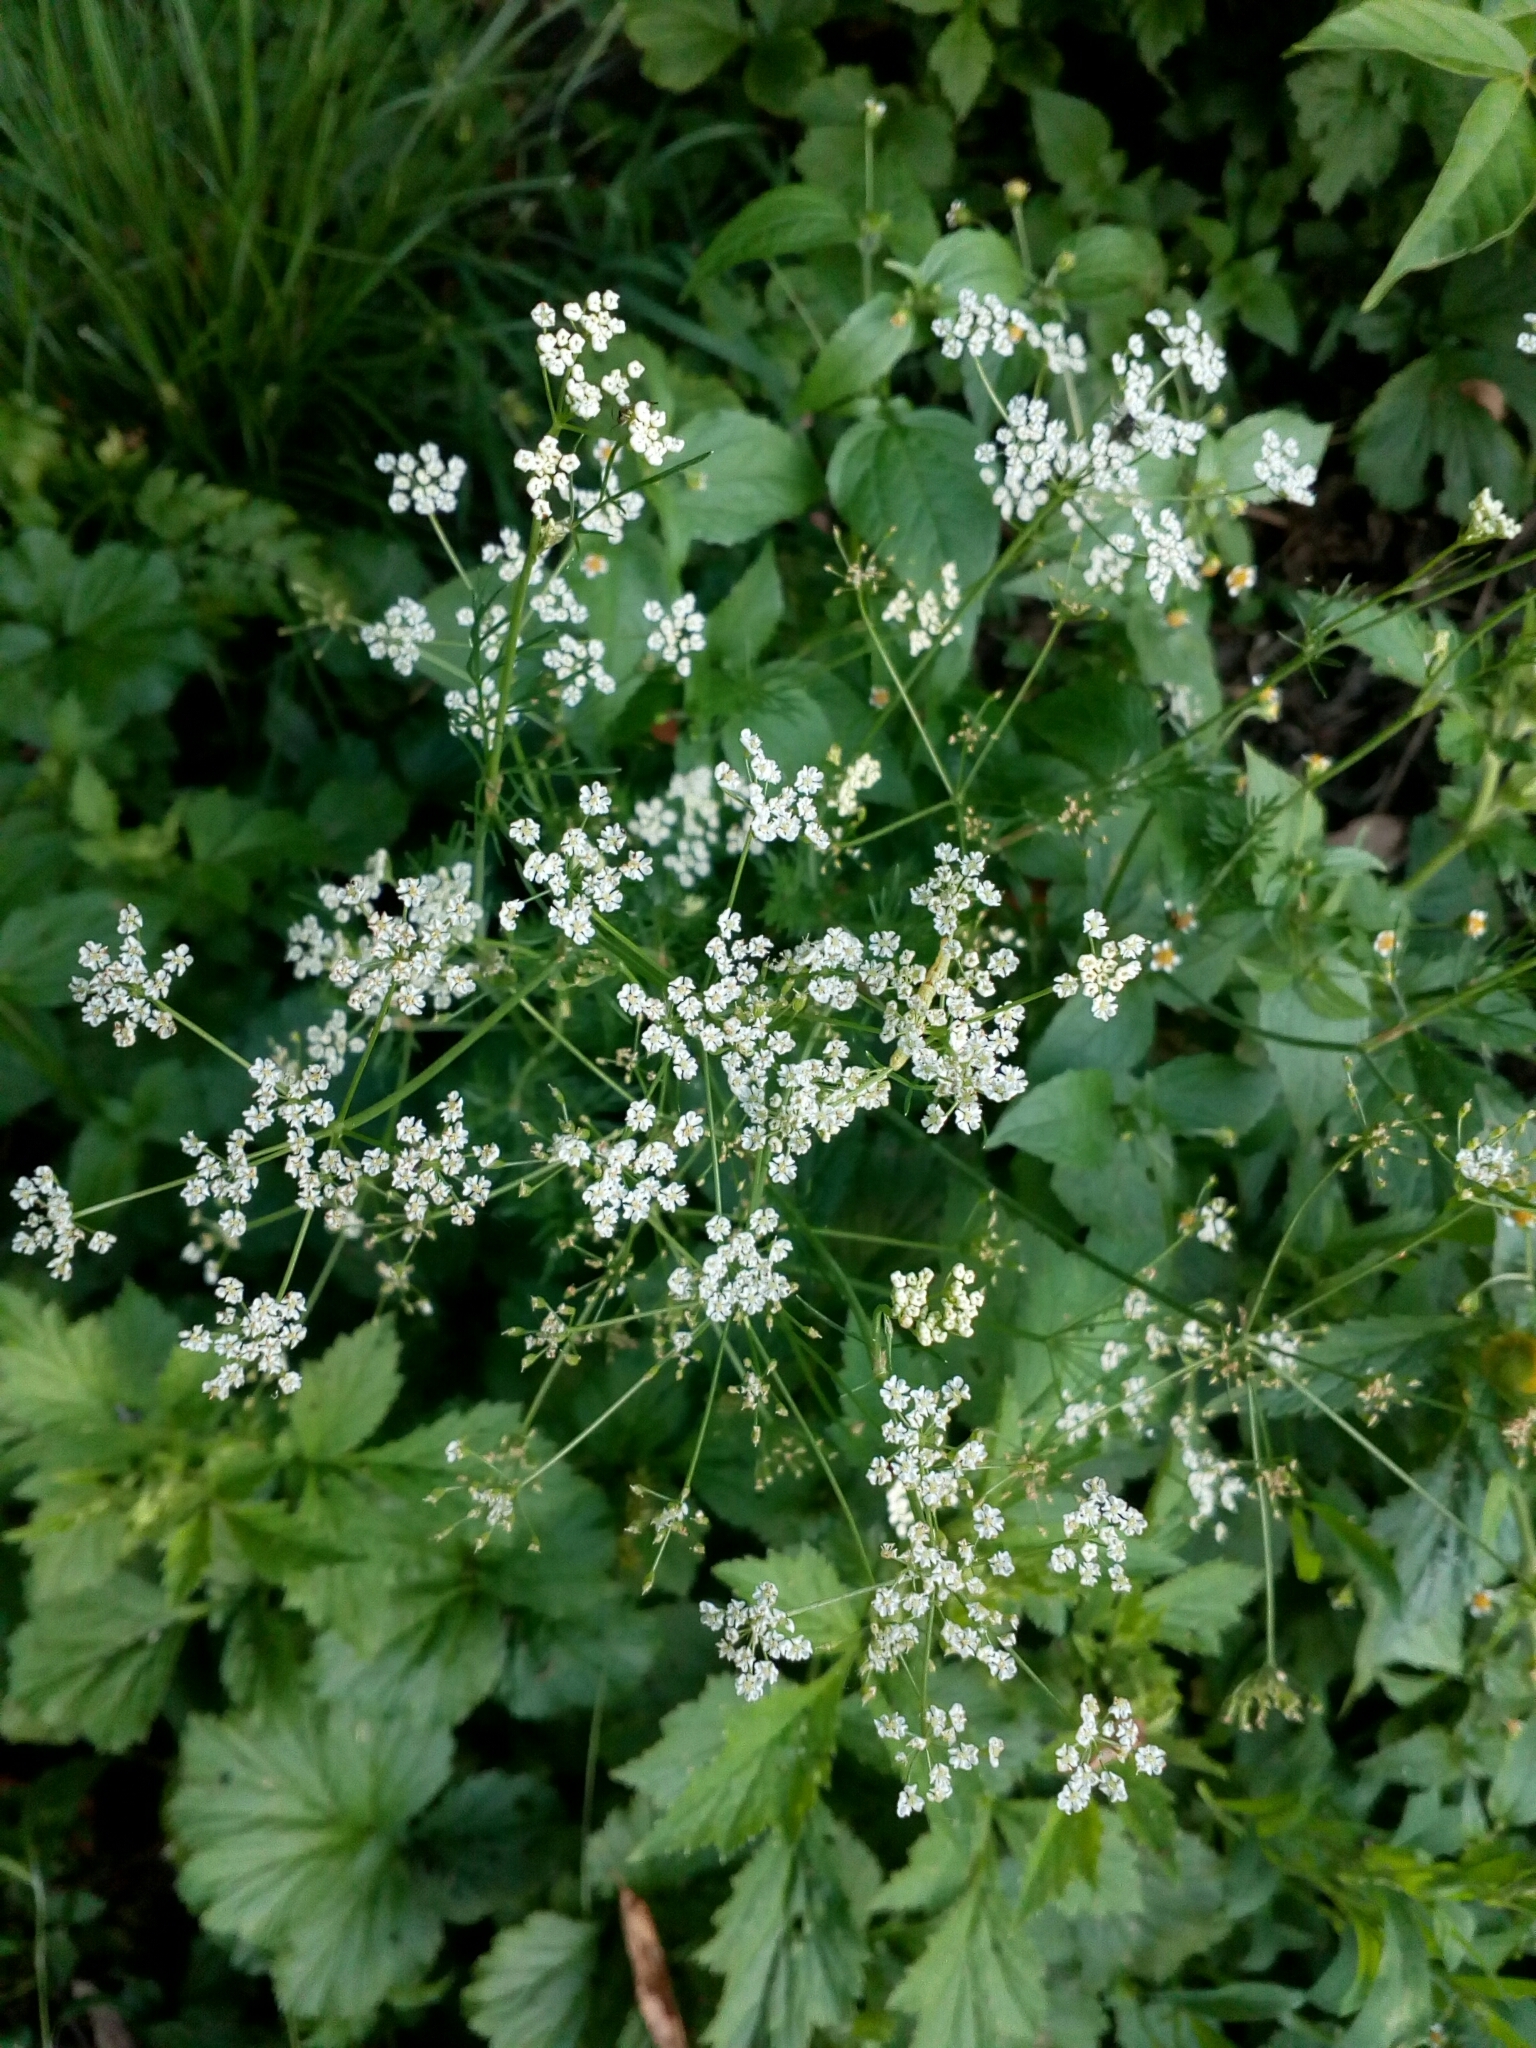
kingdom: Plantae
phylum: Tracheophyta
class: Magnoliopsida
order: Apiales
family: Apiaceae
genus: Carum
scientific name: Carum carvi
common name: Caraway
